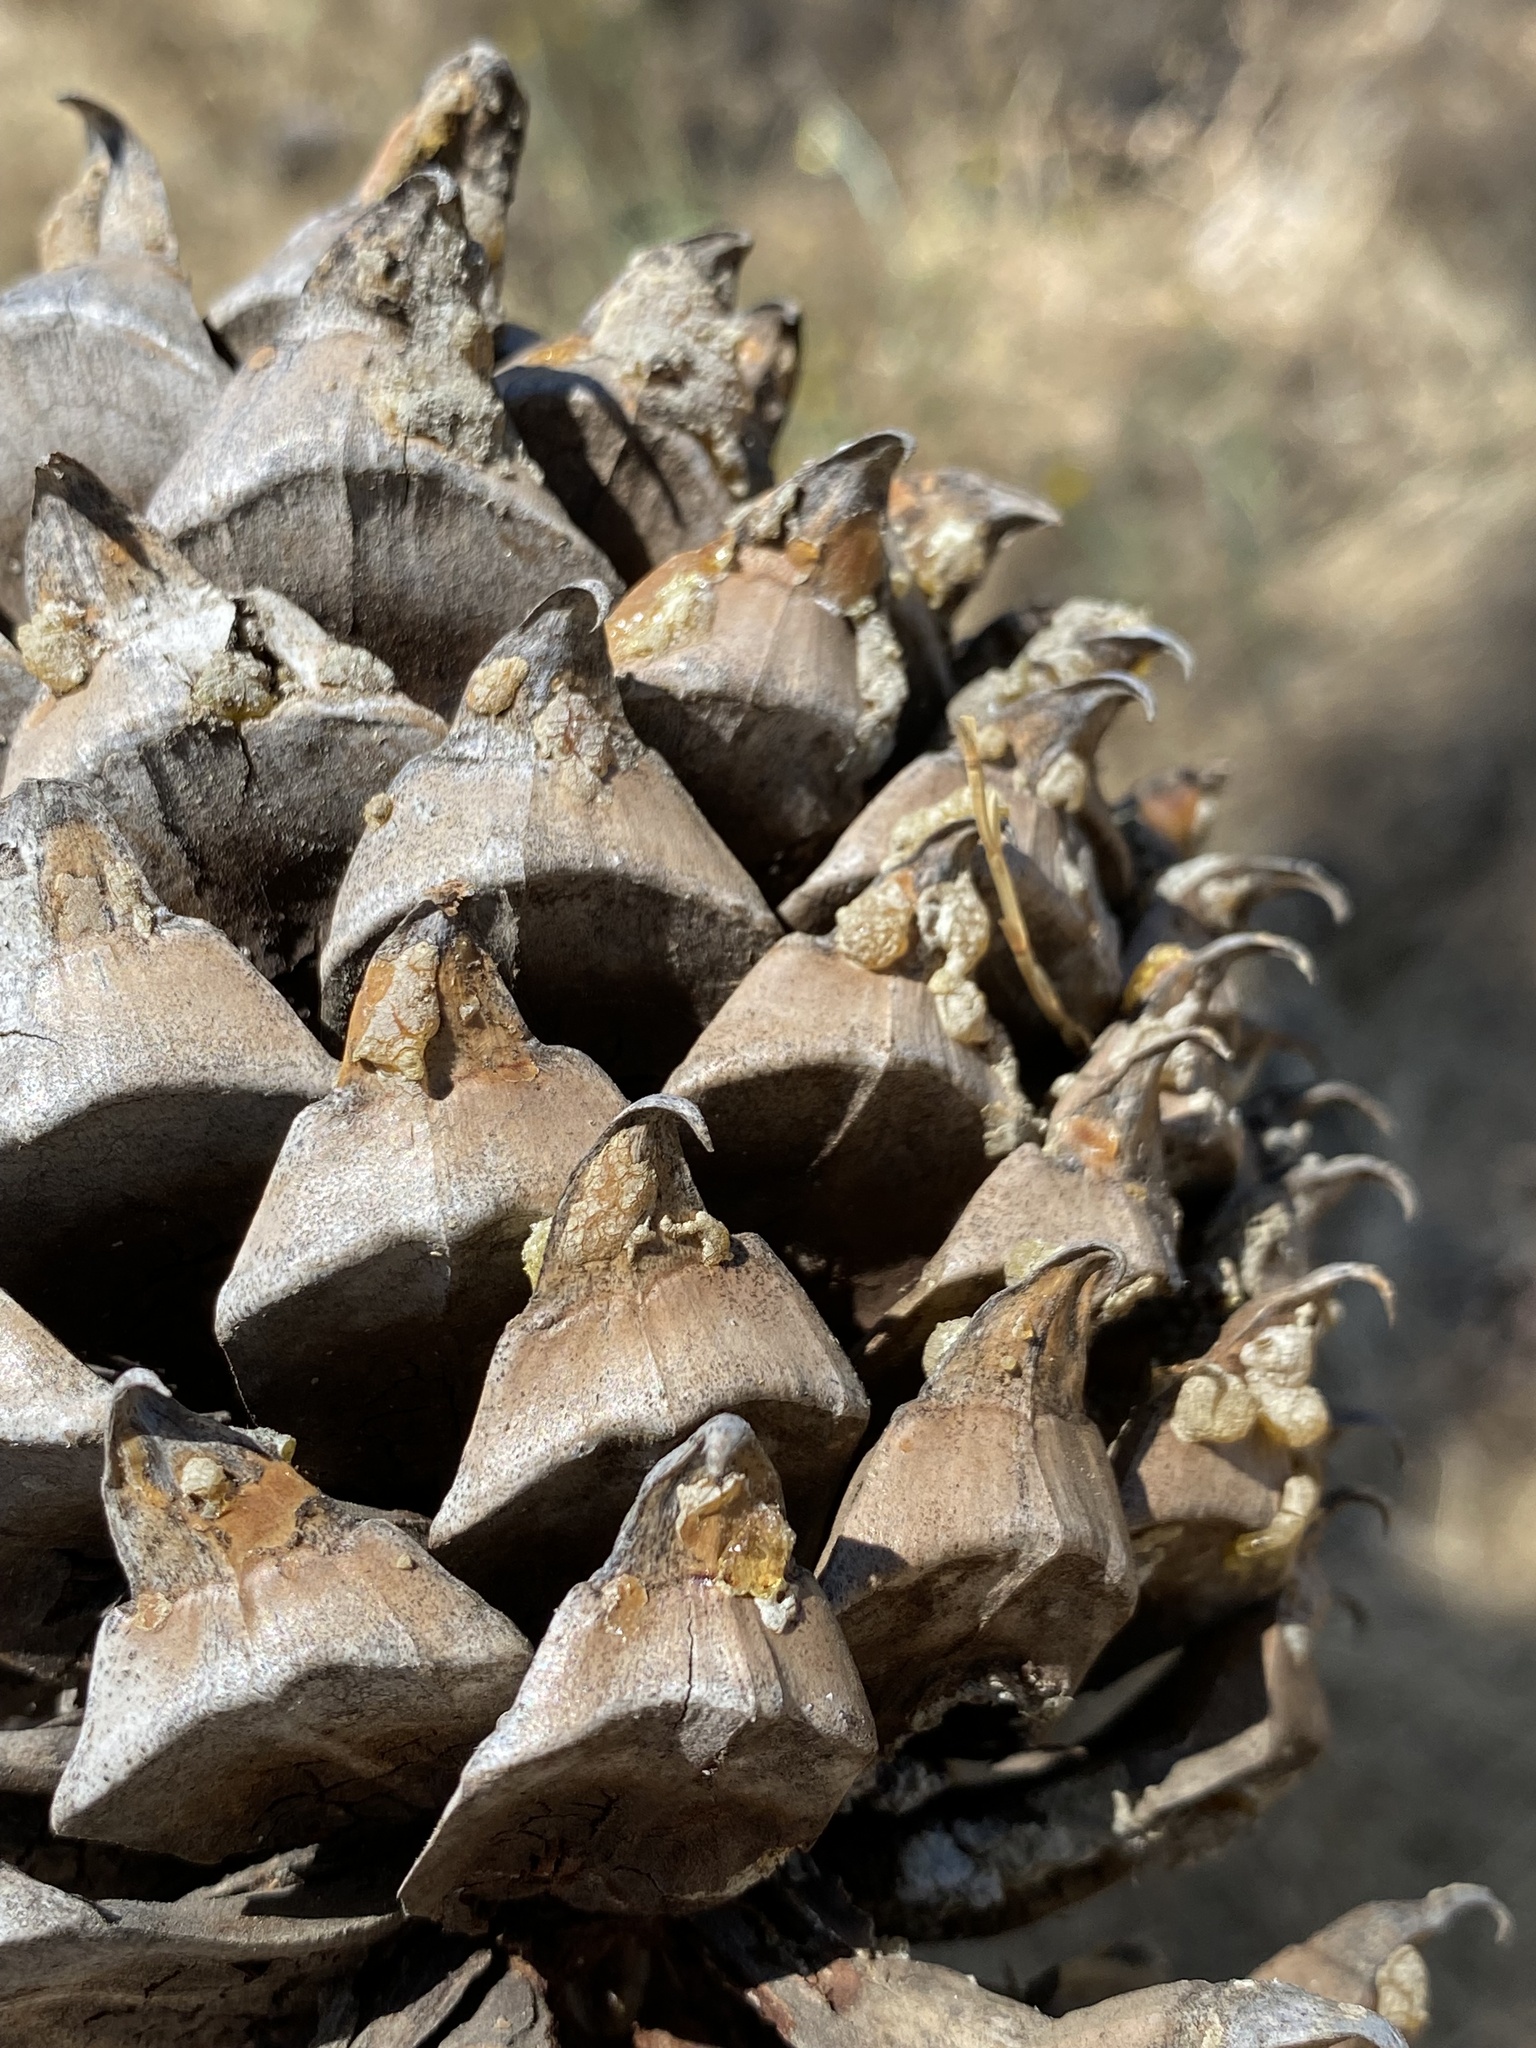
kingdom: Plantae
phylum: Tracheophyta
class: Pinopsida
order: Pinales
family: Pinaceae
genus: Pinus
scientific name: Pinus sabiniana
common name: Bull pine
